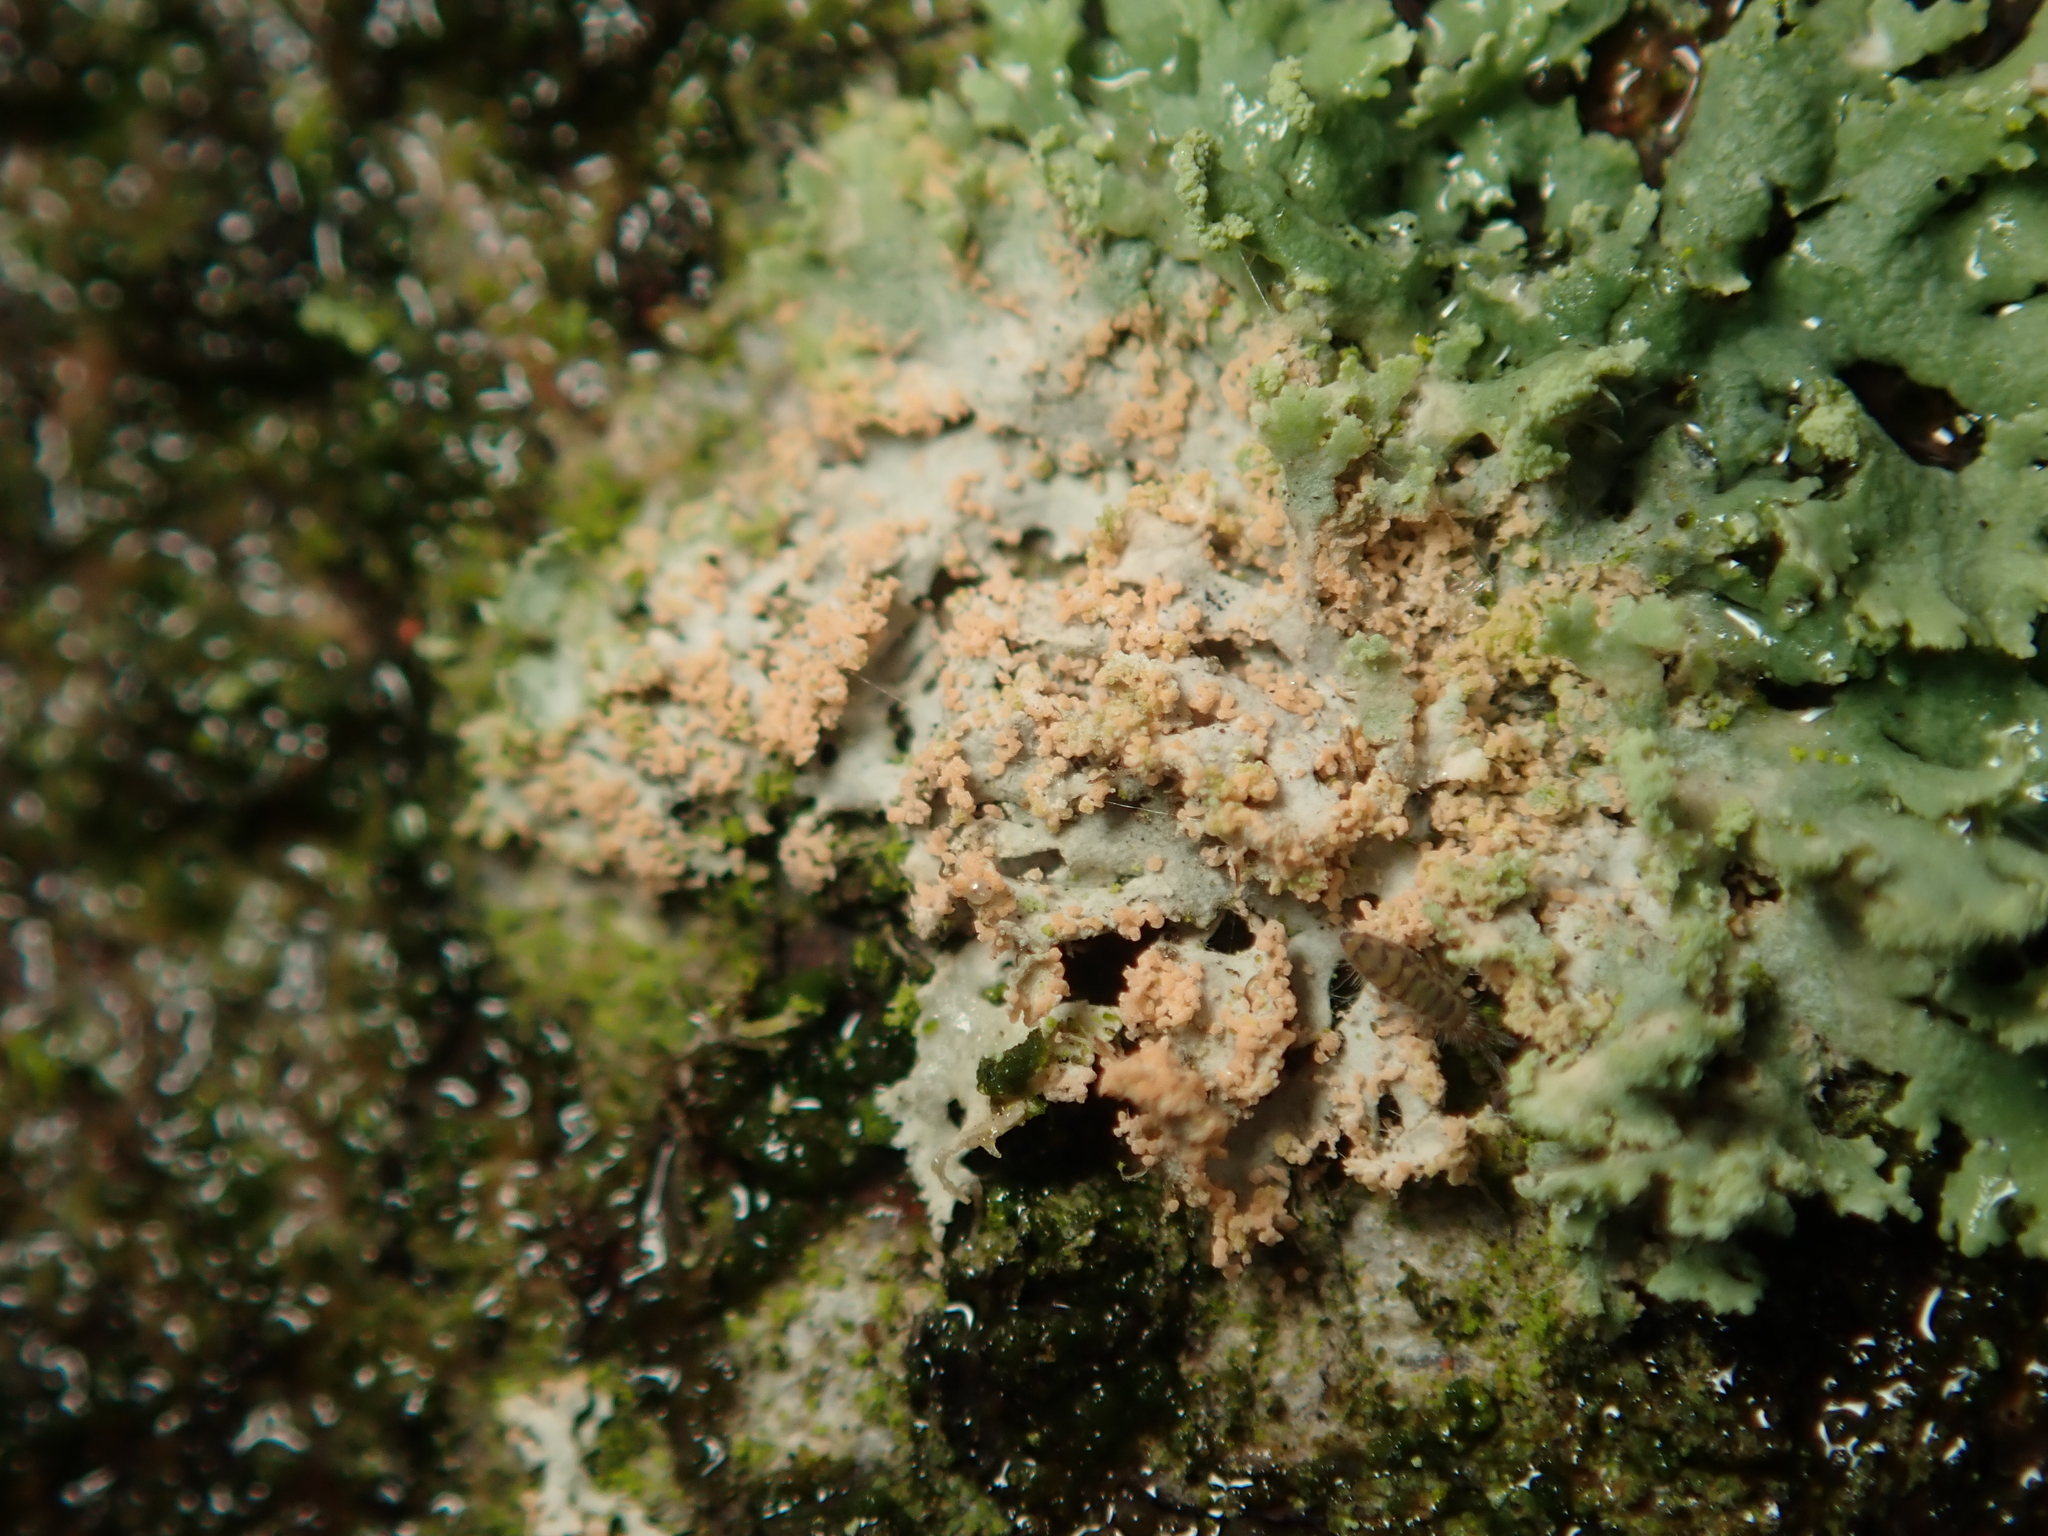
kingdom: Fungi
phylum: Basidiomycota
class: Agaricomycetes
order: Corticiales
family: Corticiaceae
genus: Erythricium
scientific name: Erythricium aurantiacum
